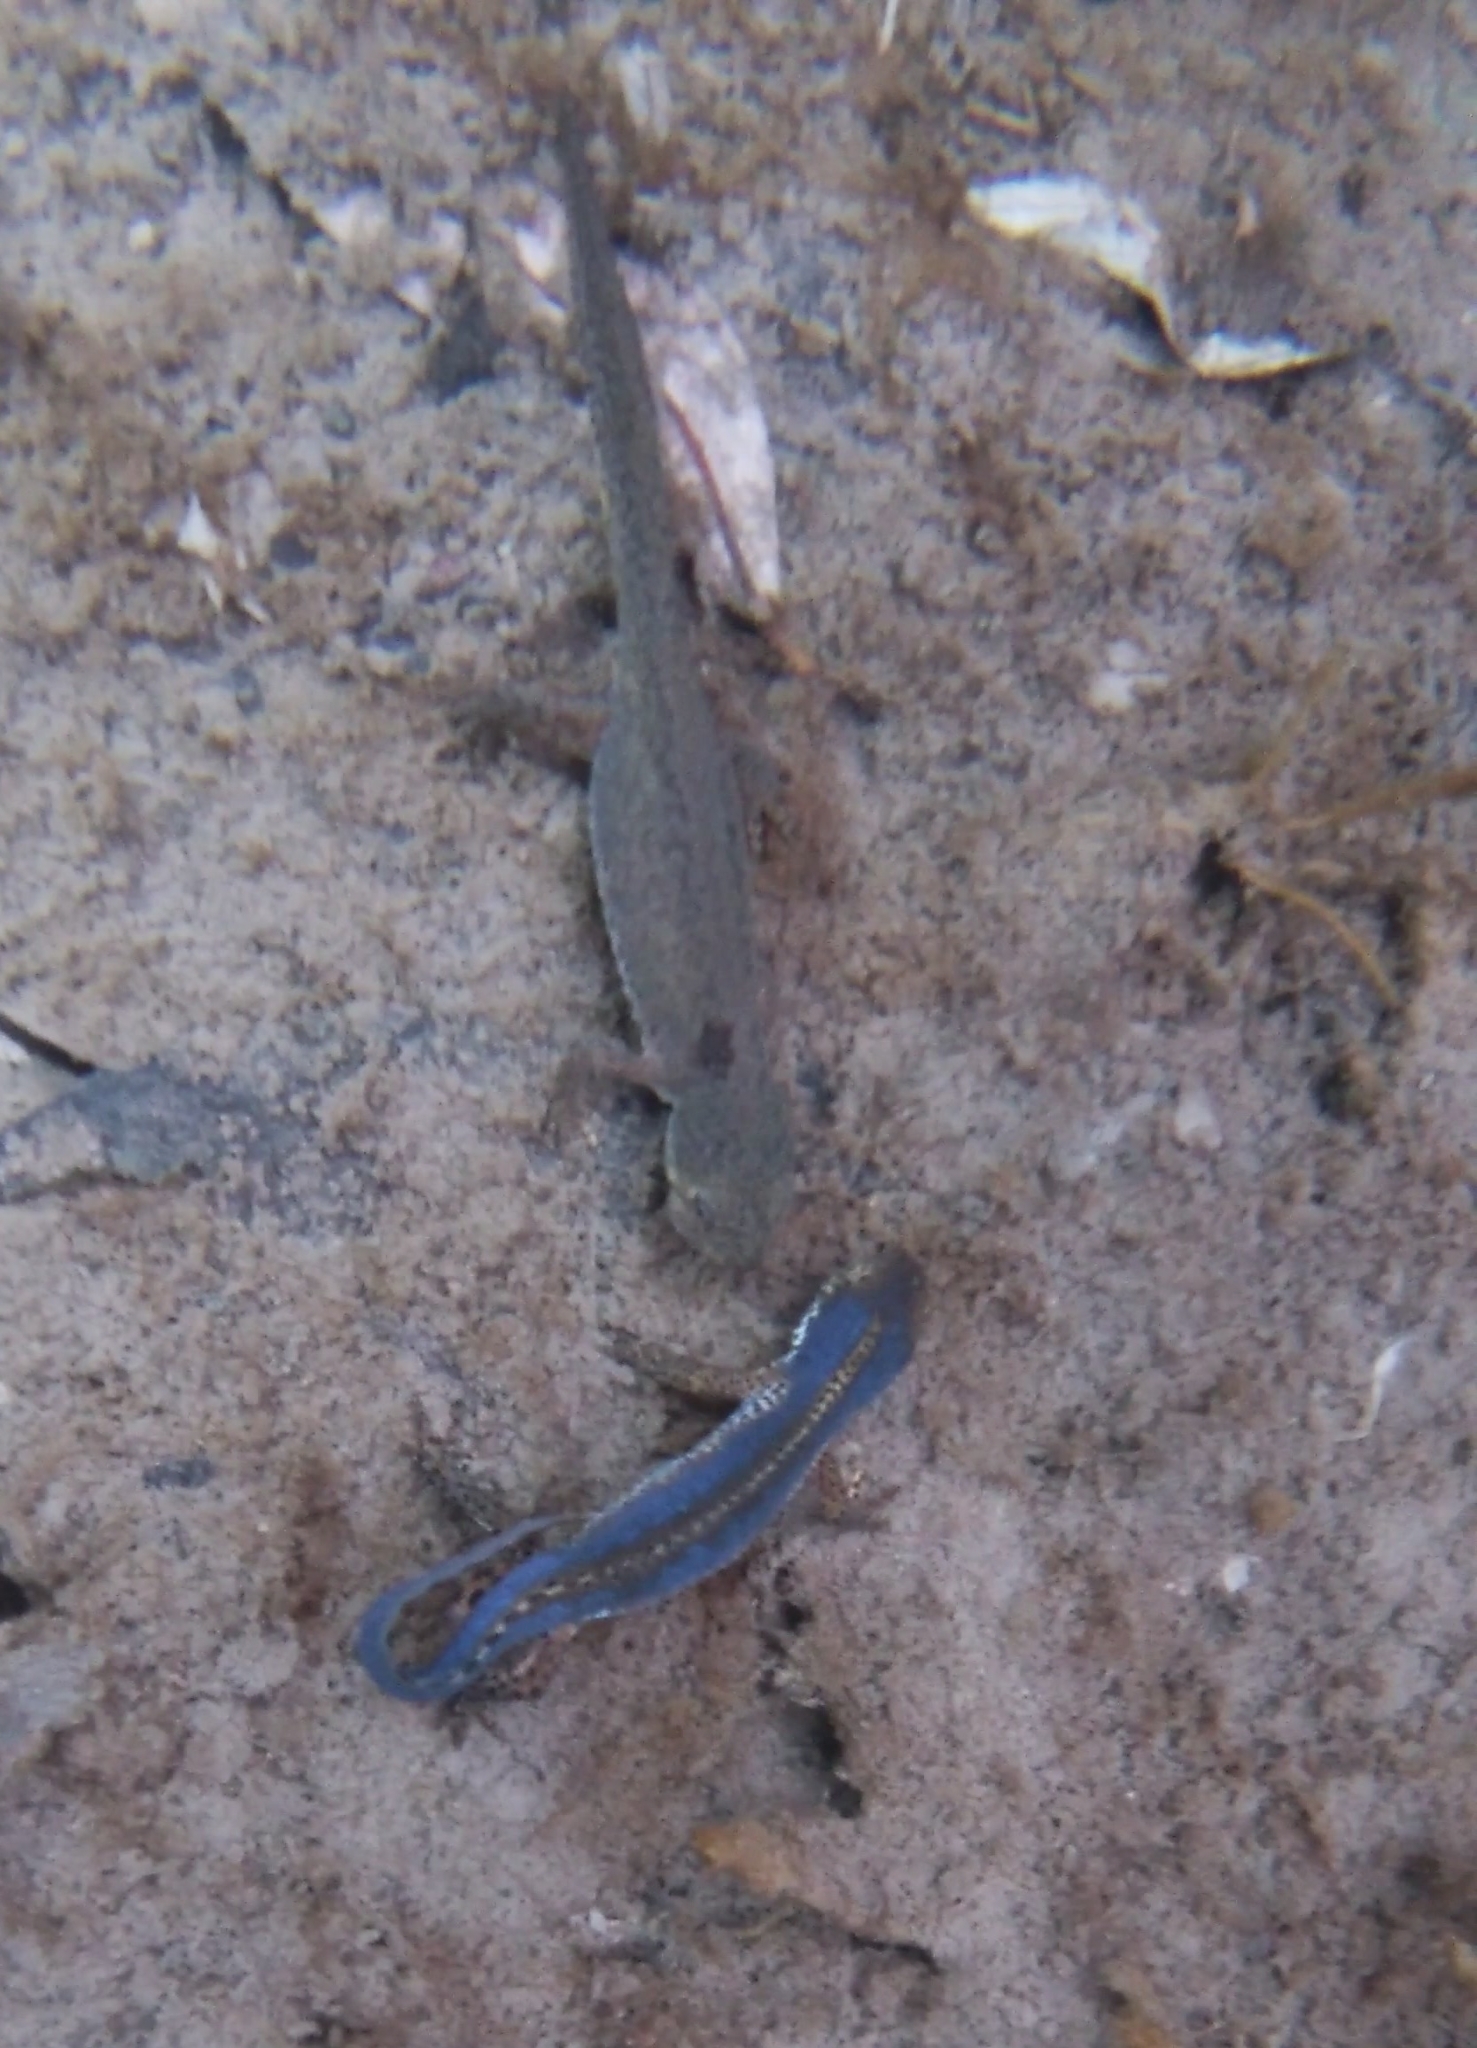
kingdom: Animalia
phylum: Chordata
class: Amphibia
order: Caudata
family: Salamandridae
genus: Ichthyosaura
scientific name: Ichthyosaura alpestris
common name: Alpine newt
